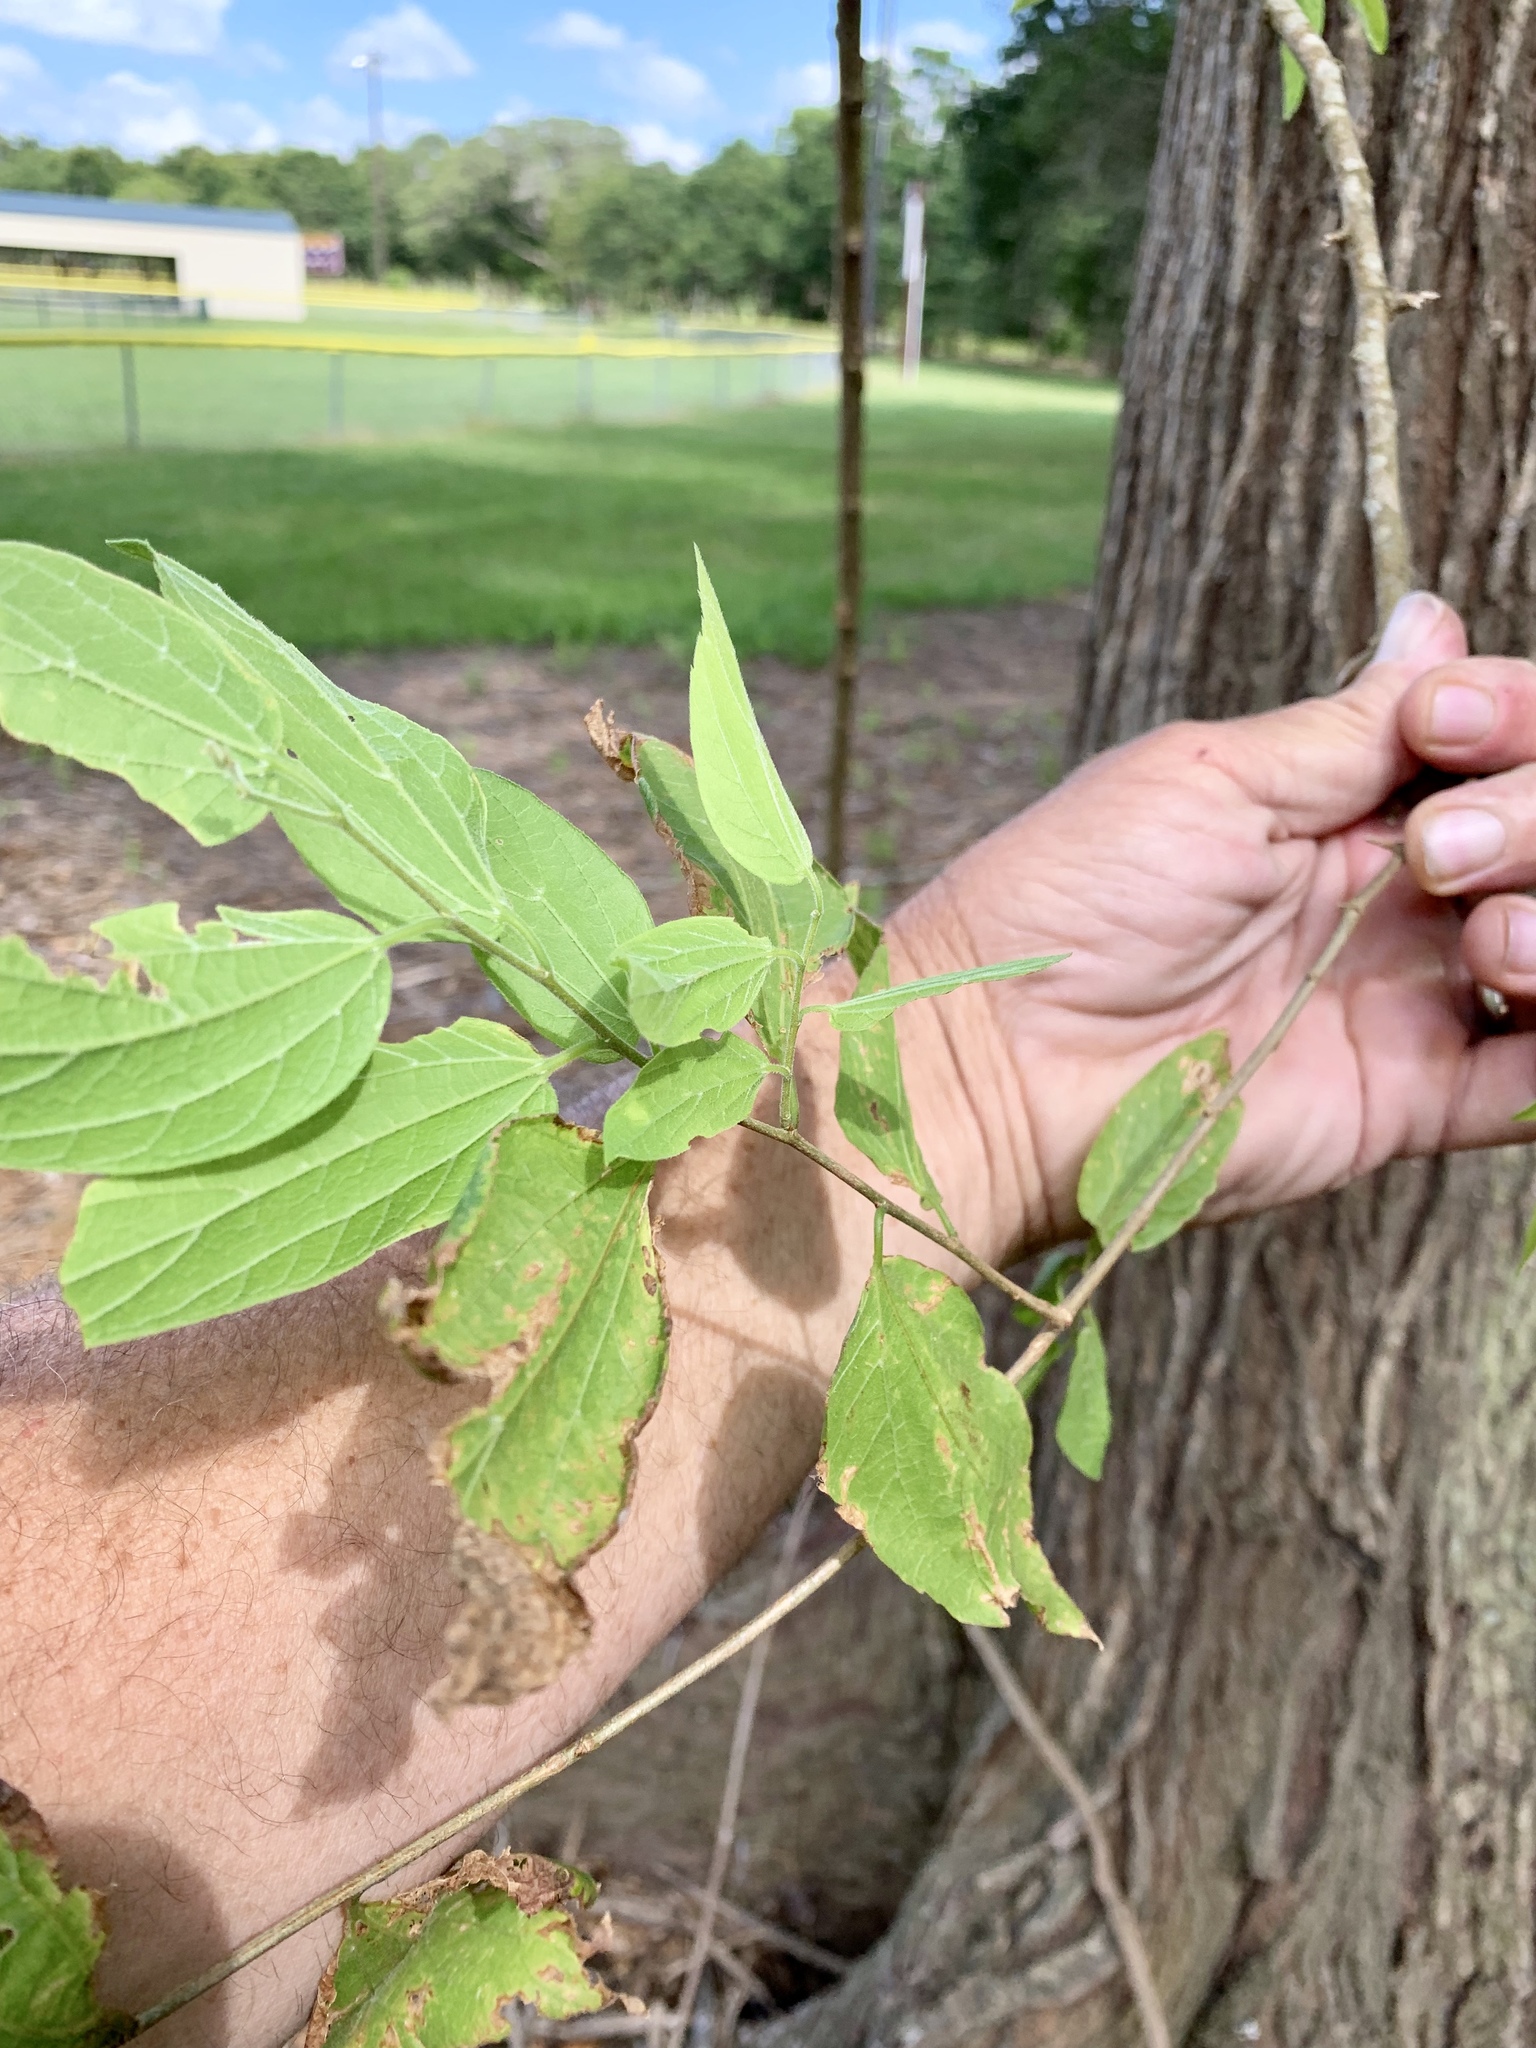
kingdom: Plantae
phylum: Tracheophyta
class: Magnoliopsida
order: Rosales
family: Cannabaceae
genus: Celtis
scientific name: Celtis laevigata
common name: Sugarberry
